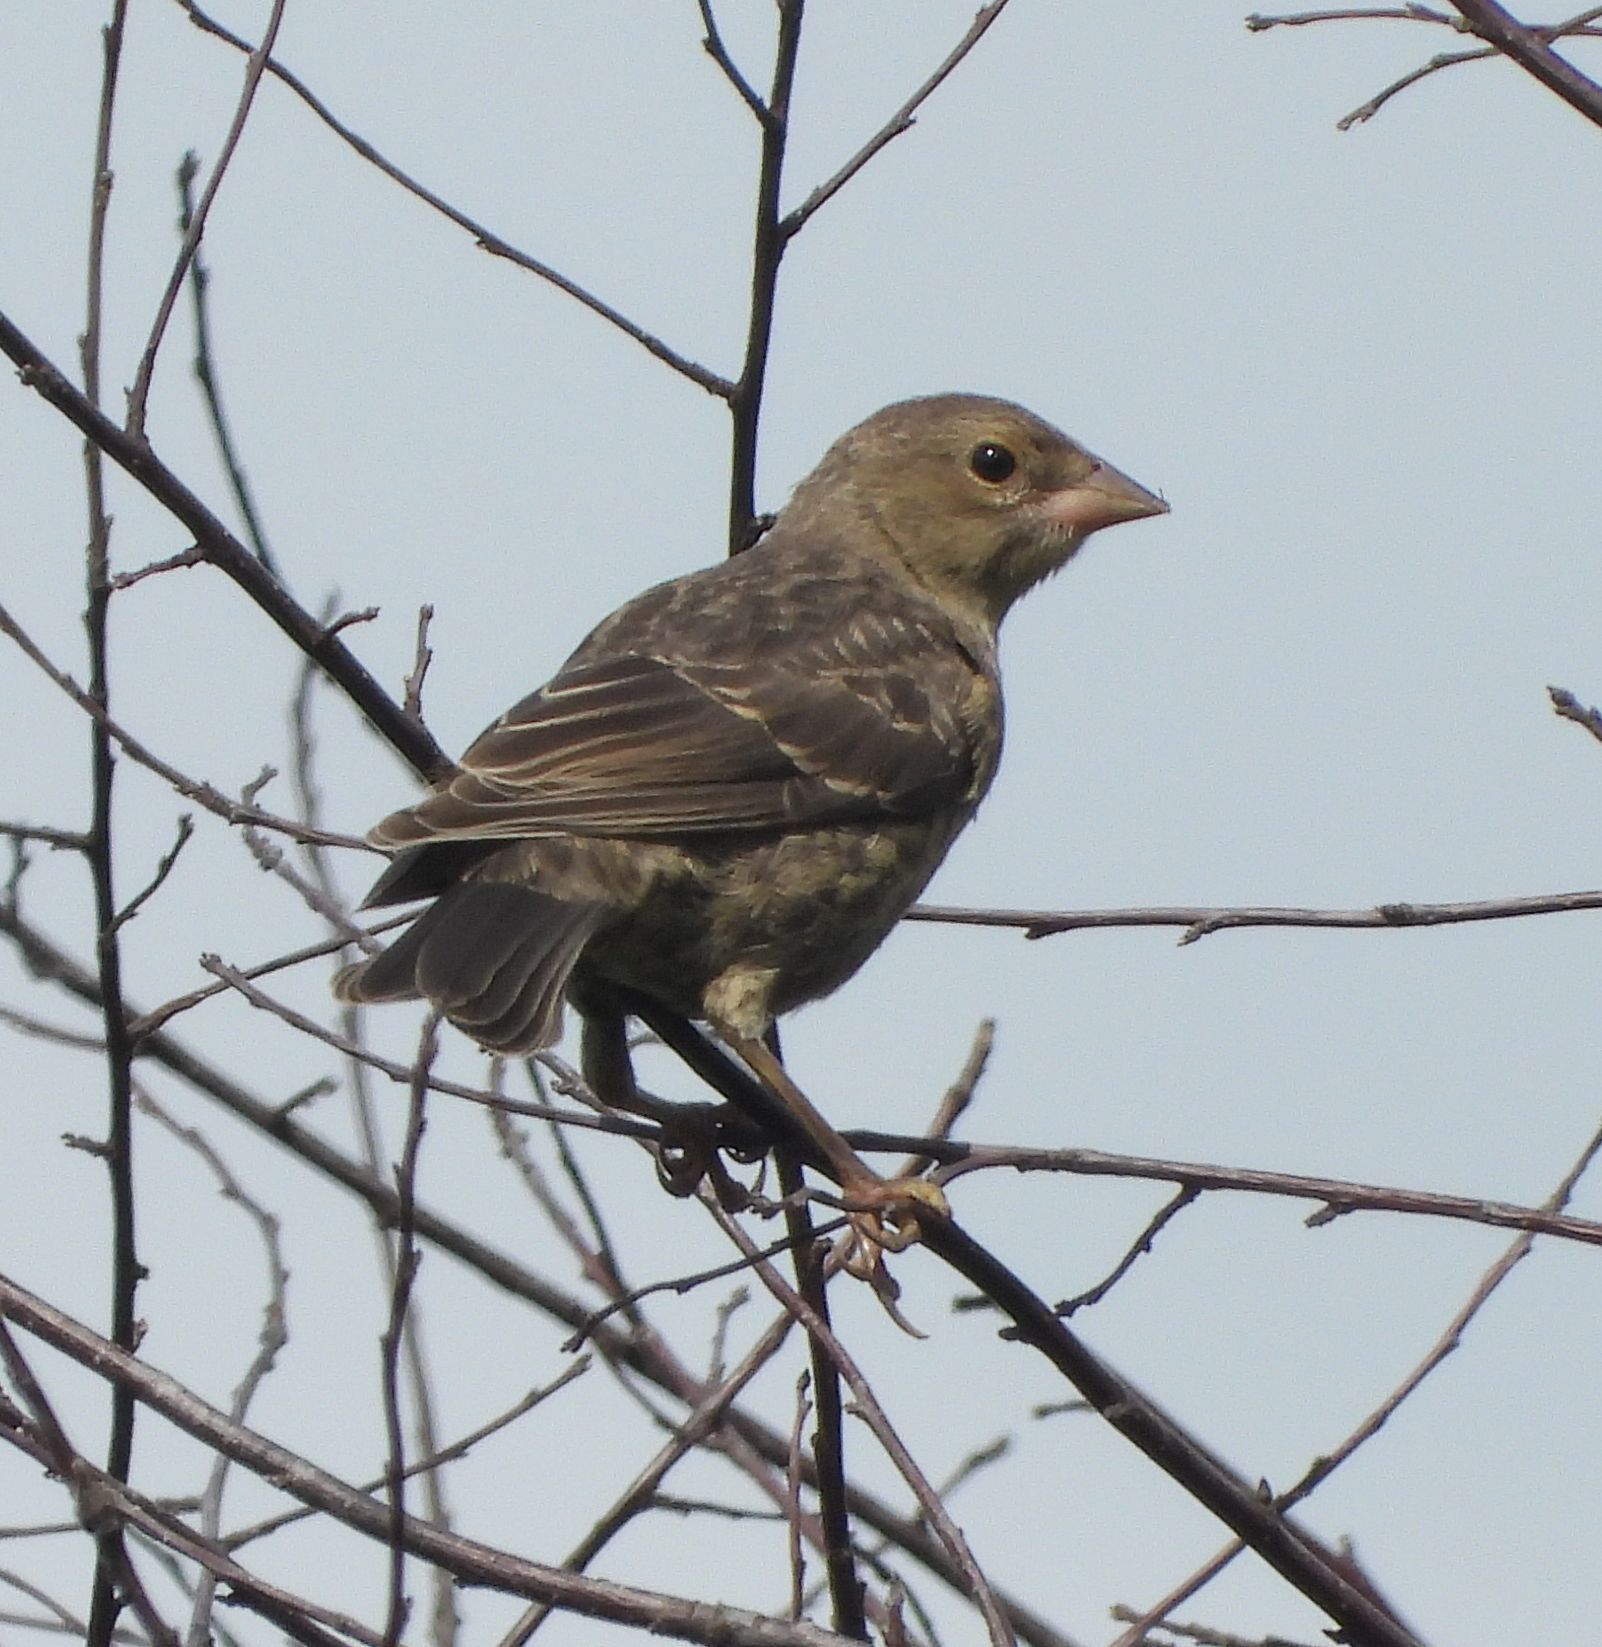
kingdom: Animalia
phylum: Chordata
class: Aves
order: Passeriformes
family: Icteridae
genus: Molothrus
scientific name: Molothrus ater
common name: Brown-headed cowbird
